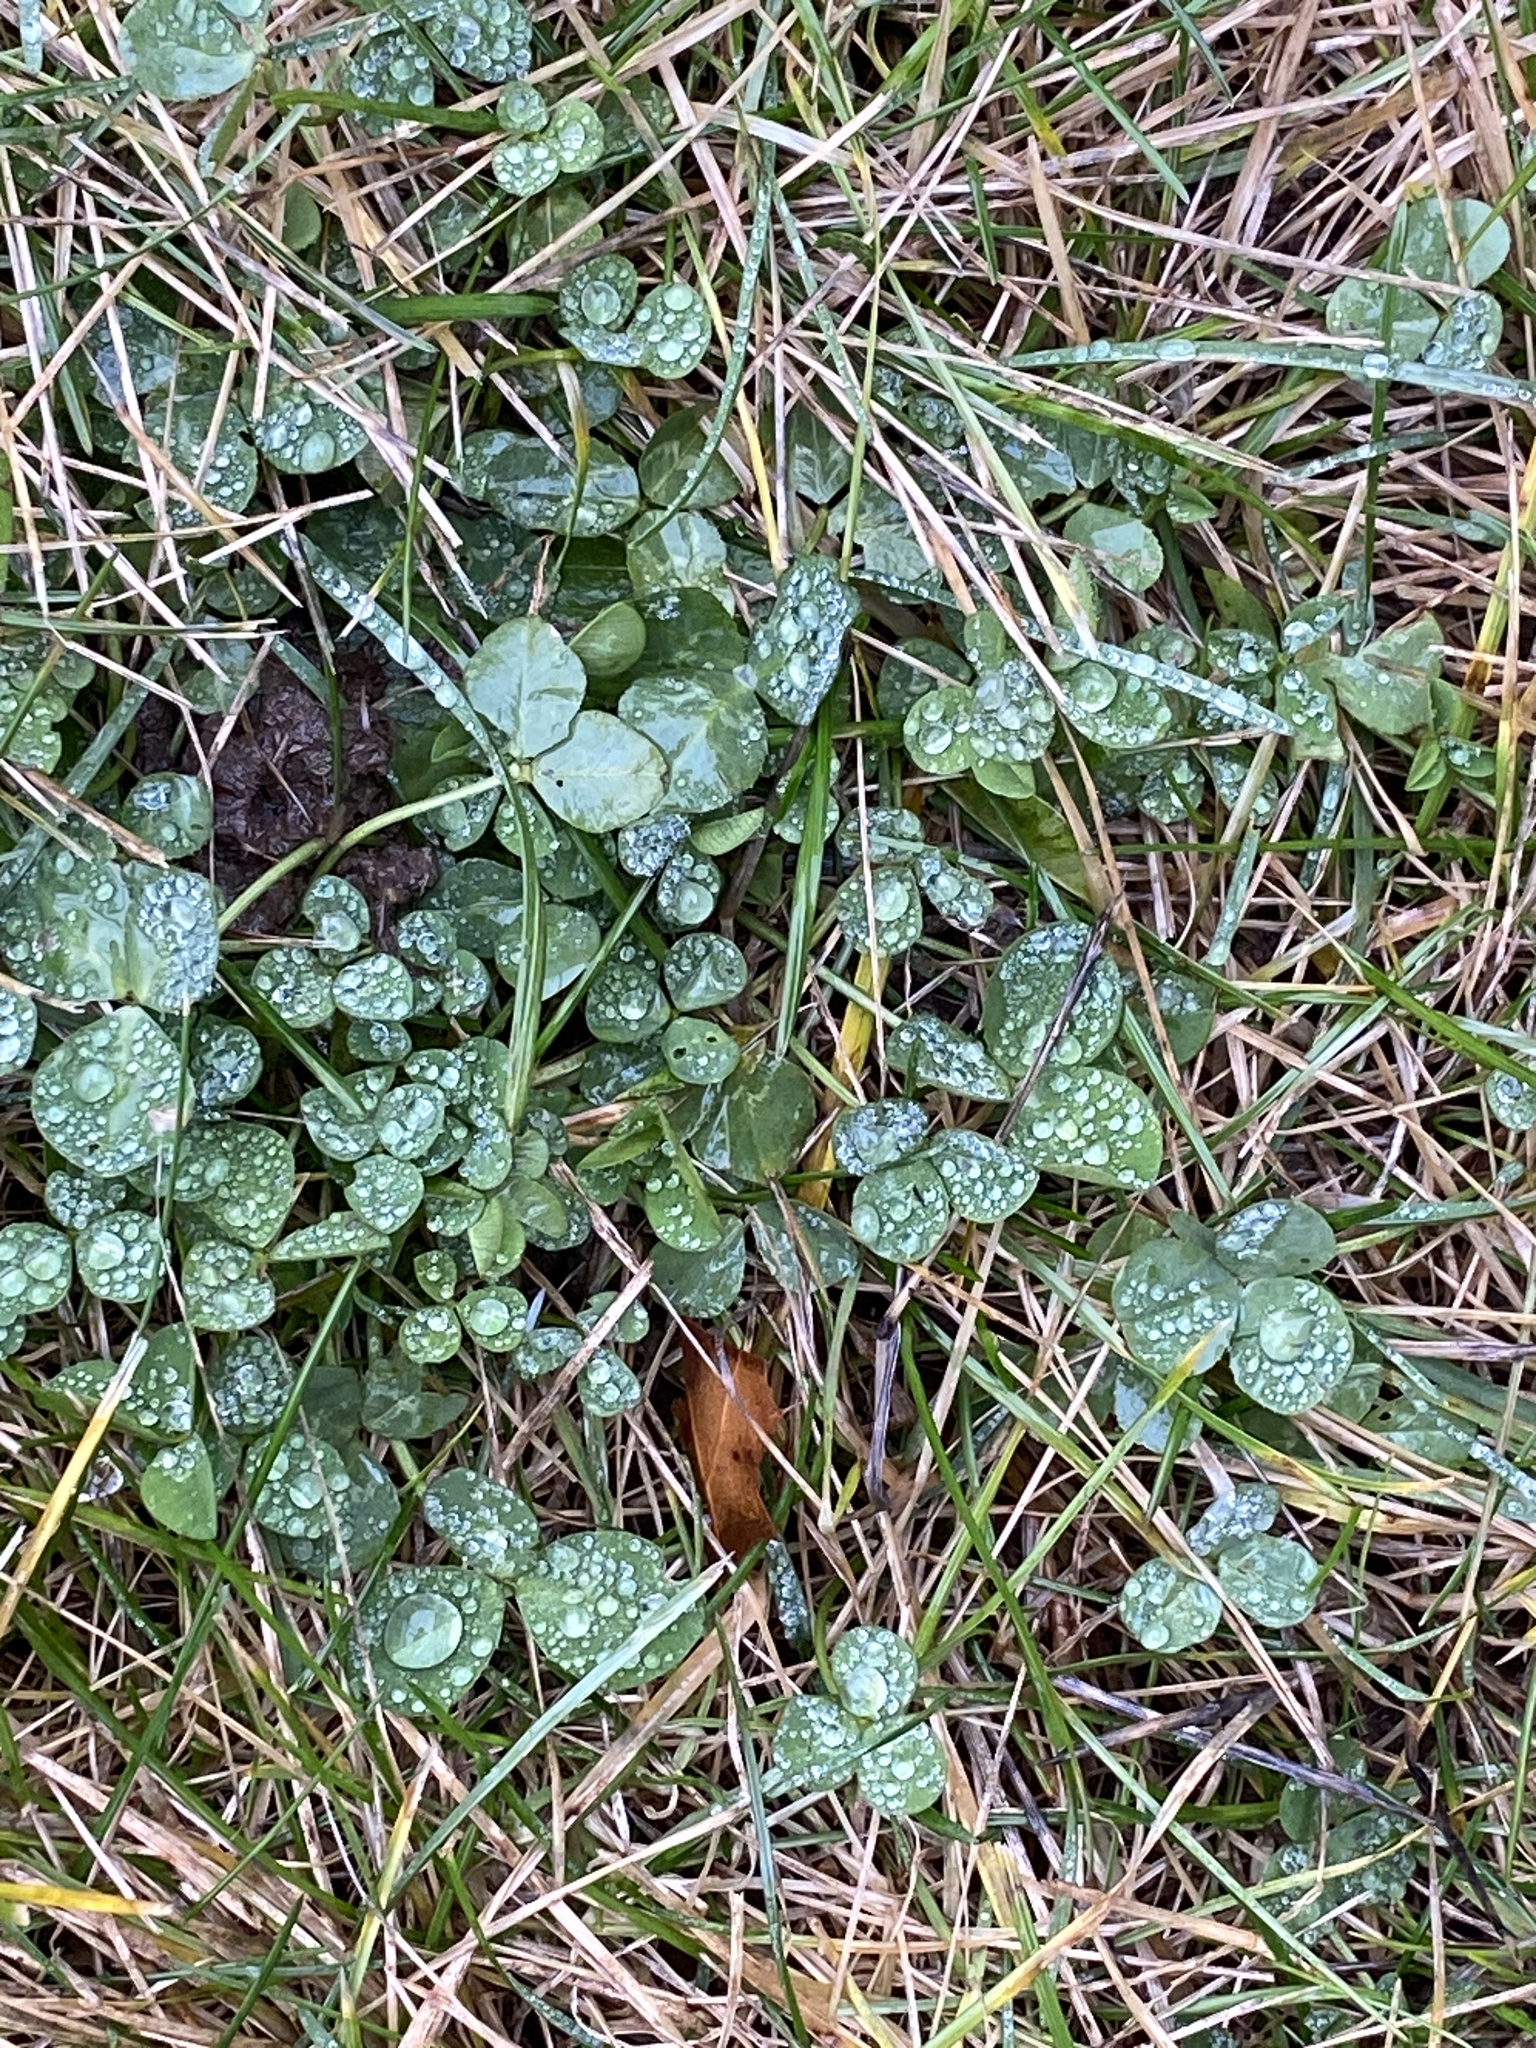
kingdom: Plantae
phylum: Tracheophyta
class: Magnoliopsida
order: Fabales
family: Fabaceae
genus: Trifolium
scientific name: Trifolium repens
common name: White clover
